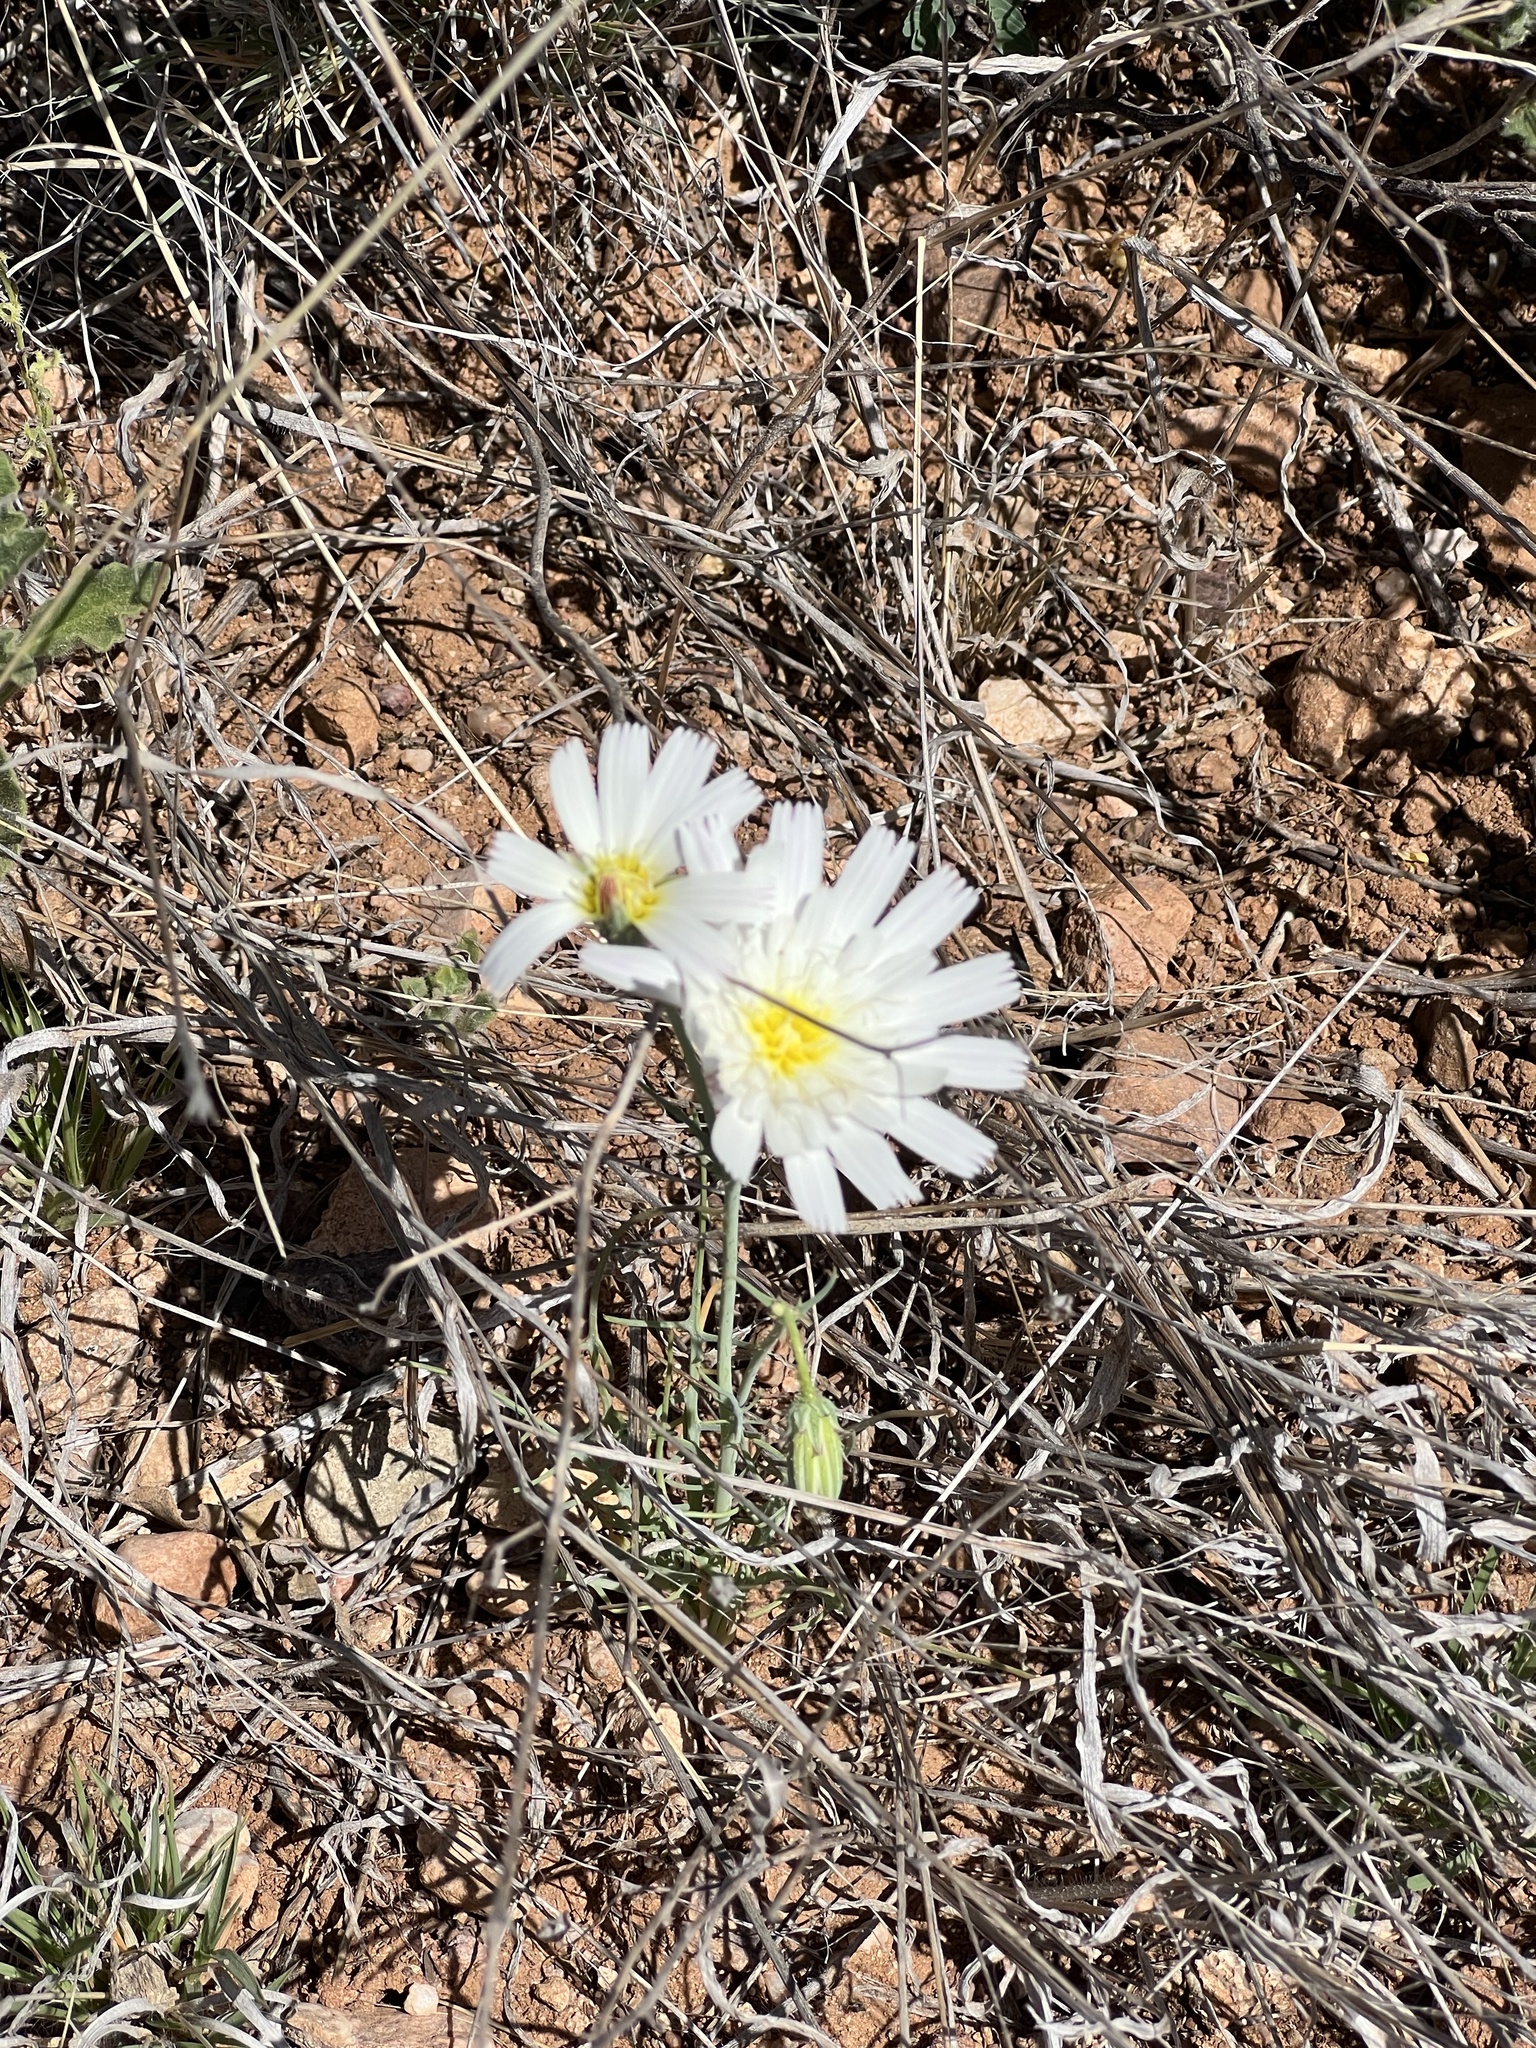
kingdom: Plantae
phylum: Tracheophyta
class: Magnoliopsida
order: Asterales
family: Asteraceae
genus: Calycoseris
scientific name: Calycoseris wrightii
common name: White tackstem
